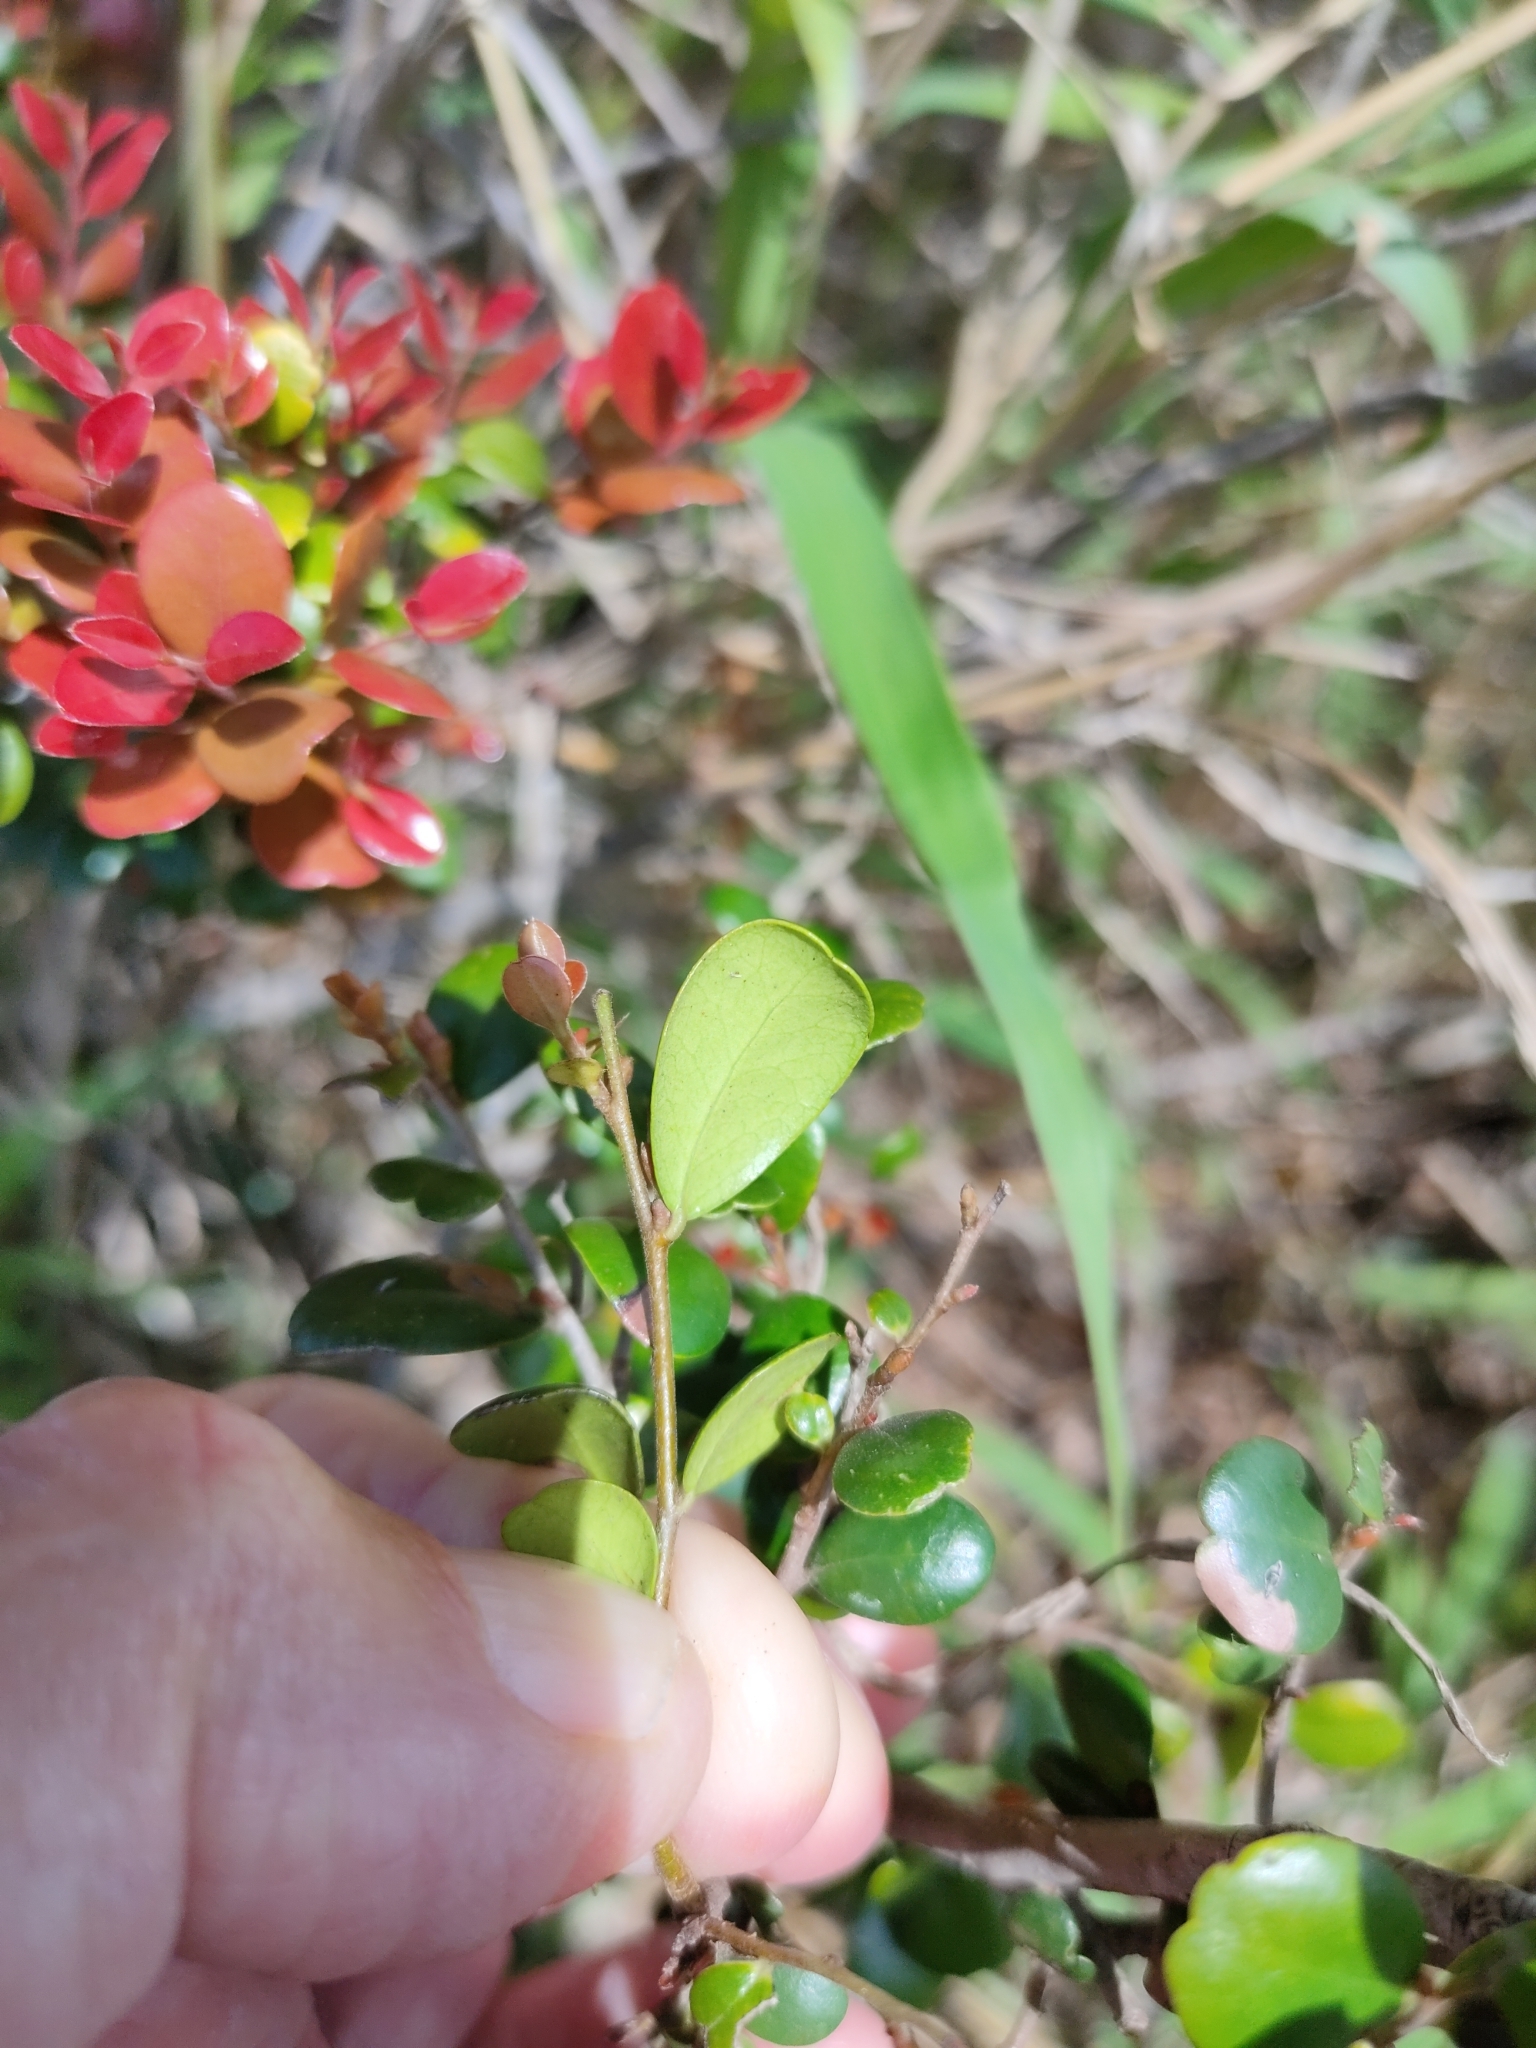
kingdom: Plantae
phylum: Tracheophyta
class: Magnoliopsida
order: Ericales
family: Ebenaceae
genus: Diospyros
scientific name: Diospyros humilis
